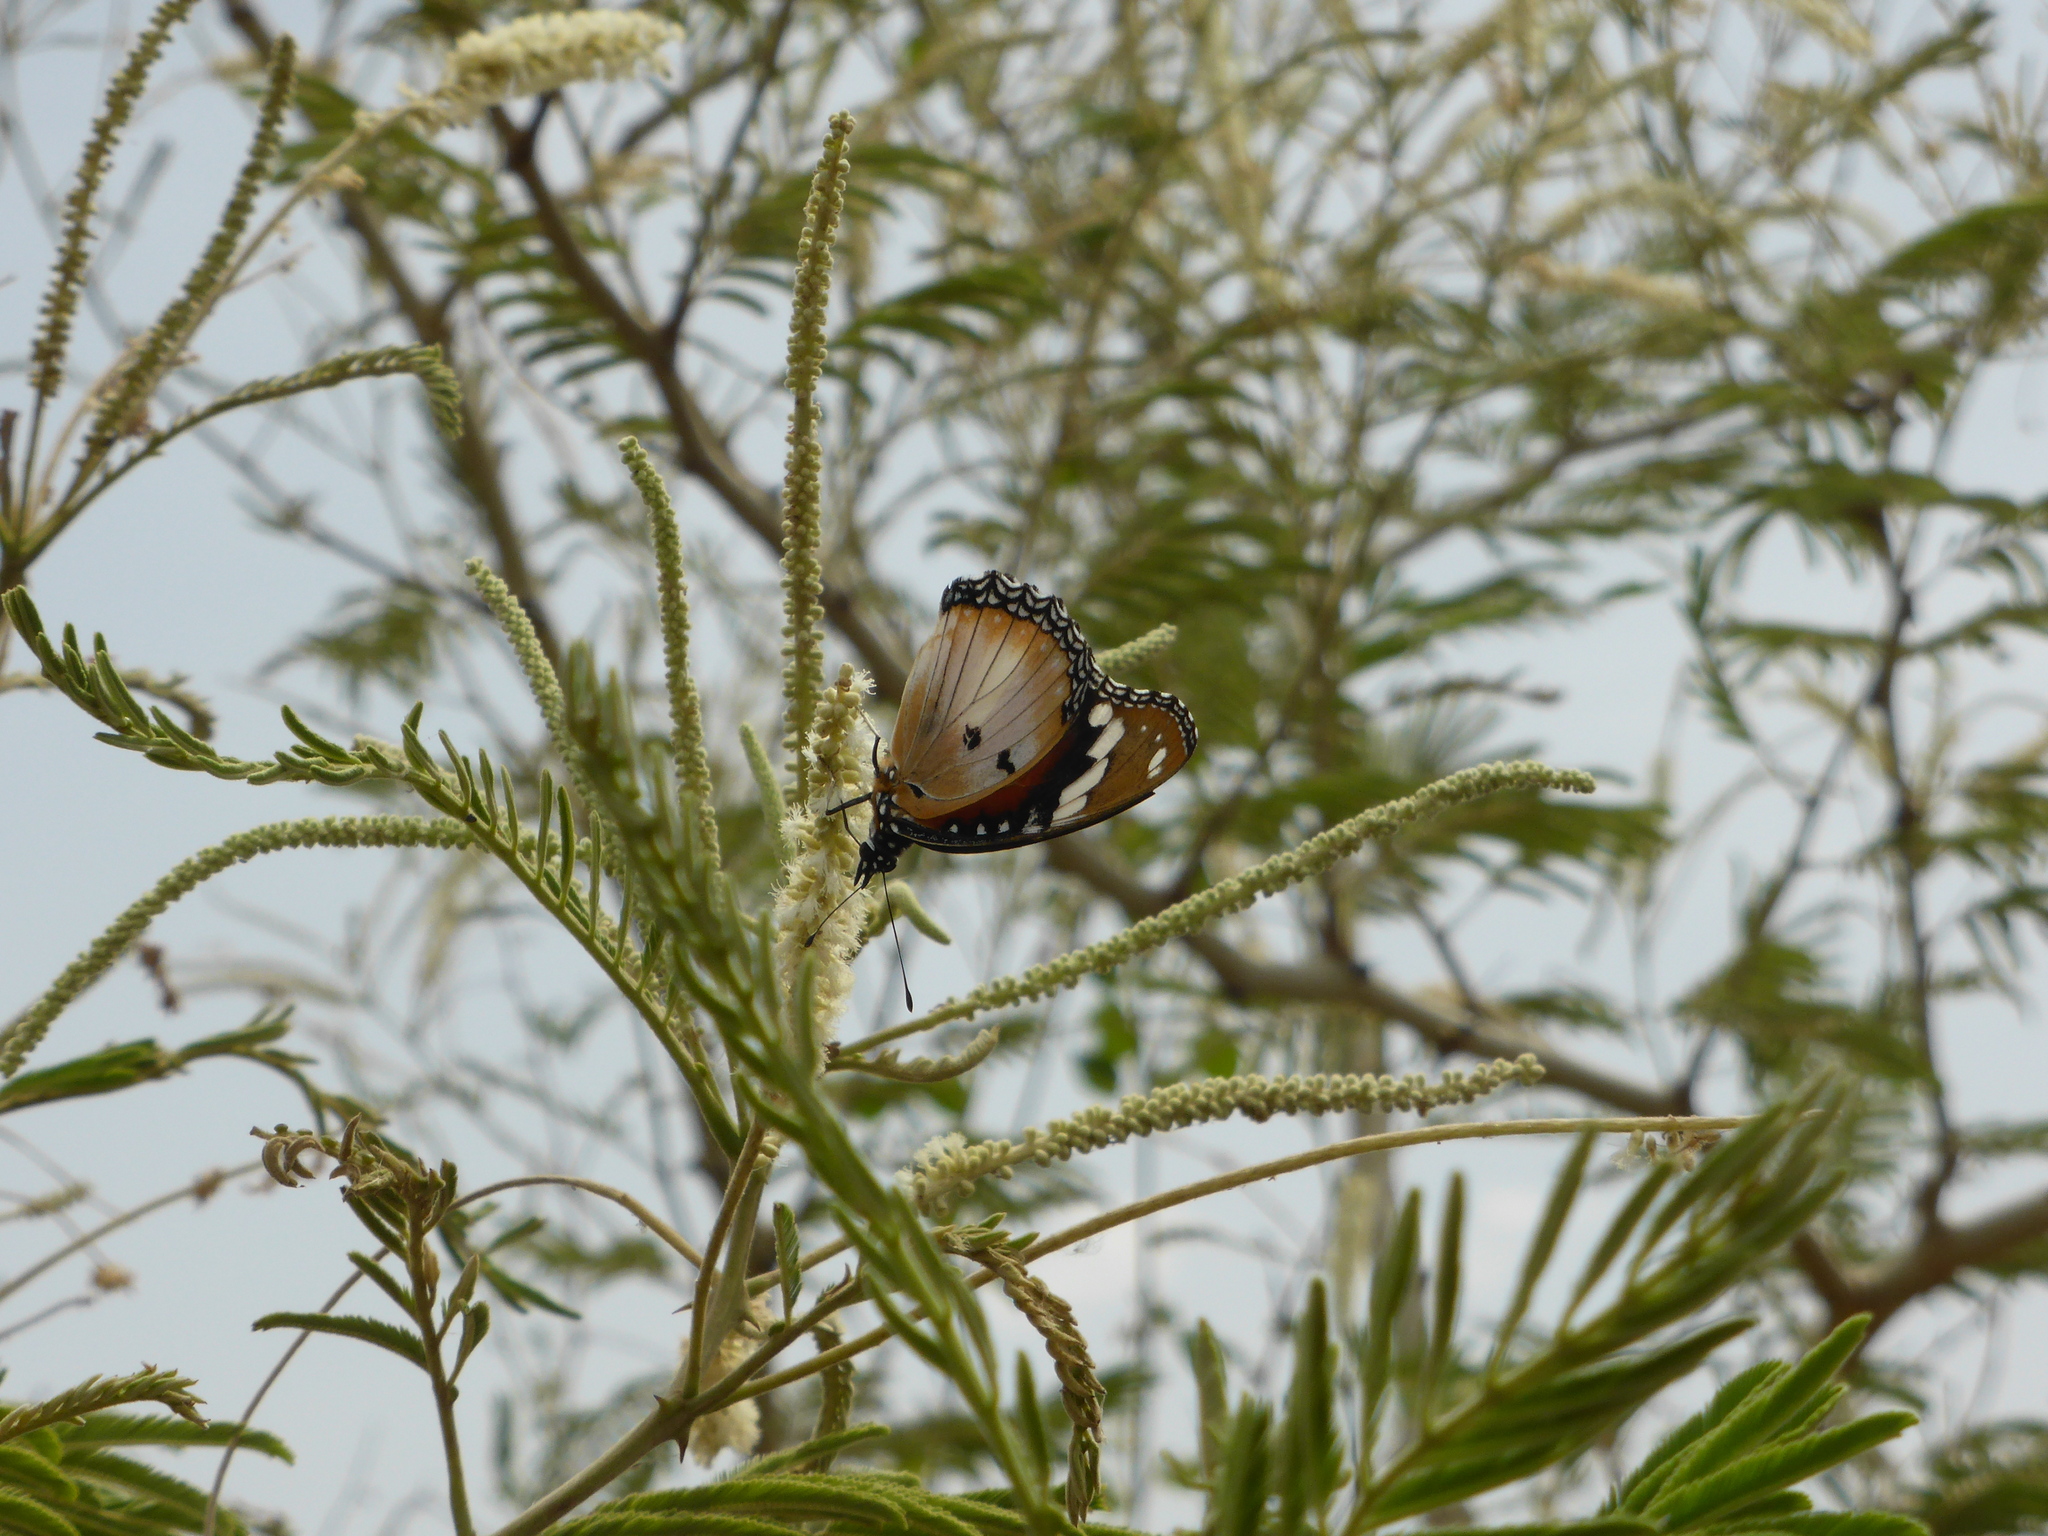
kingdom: Animalia
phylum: Arthropoda
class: Insecta
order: Lepidoptera
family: Nymphalidae
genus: Hypolimnas
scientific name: Hypolimnas misippus
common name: False plain tiger
